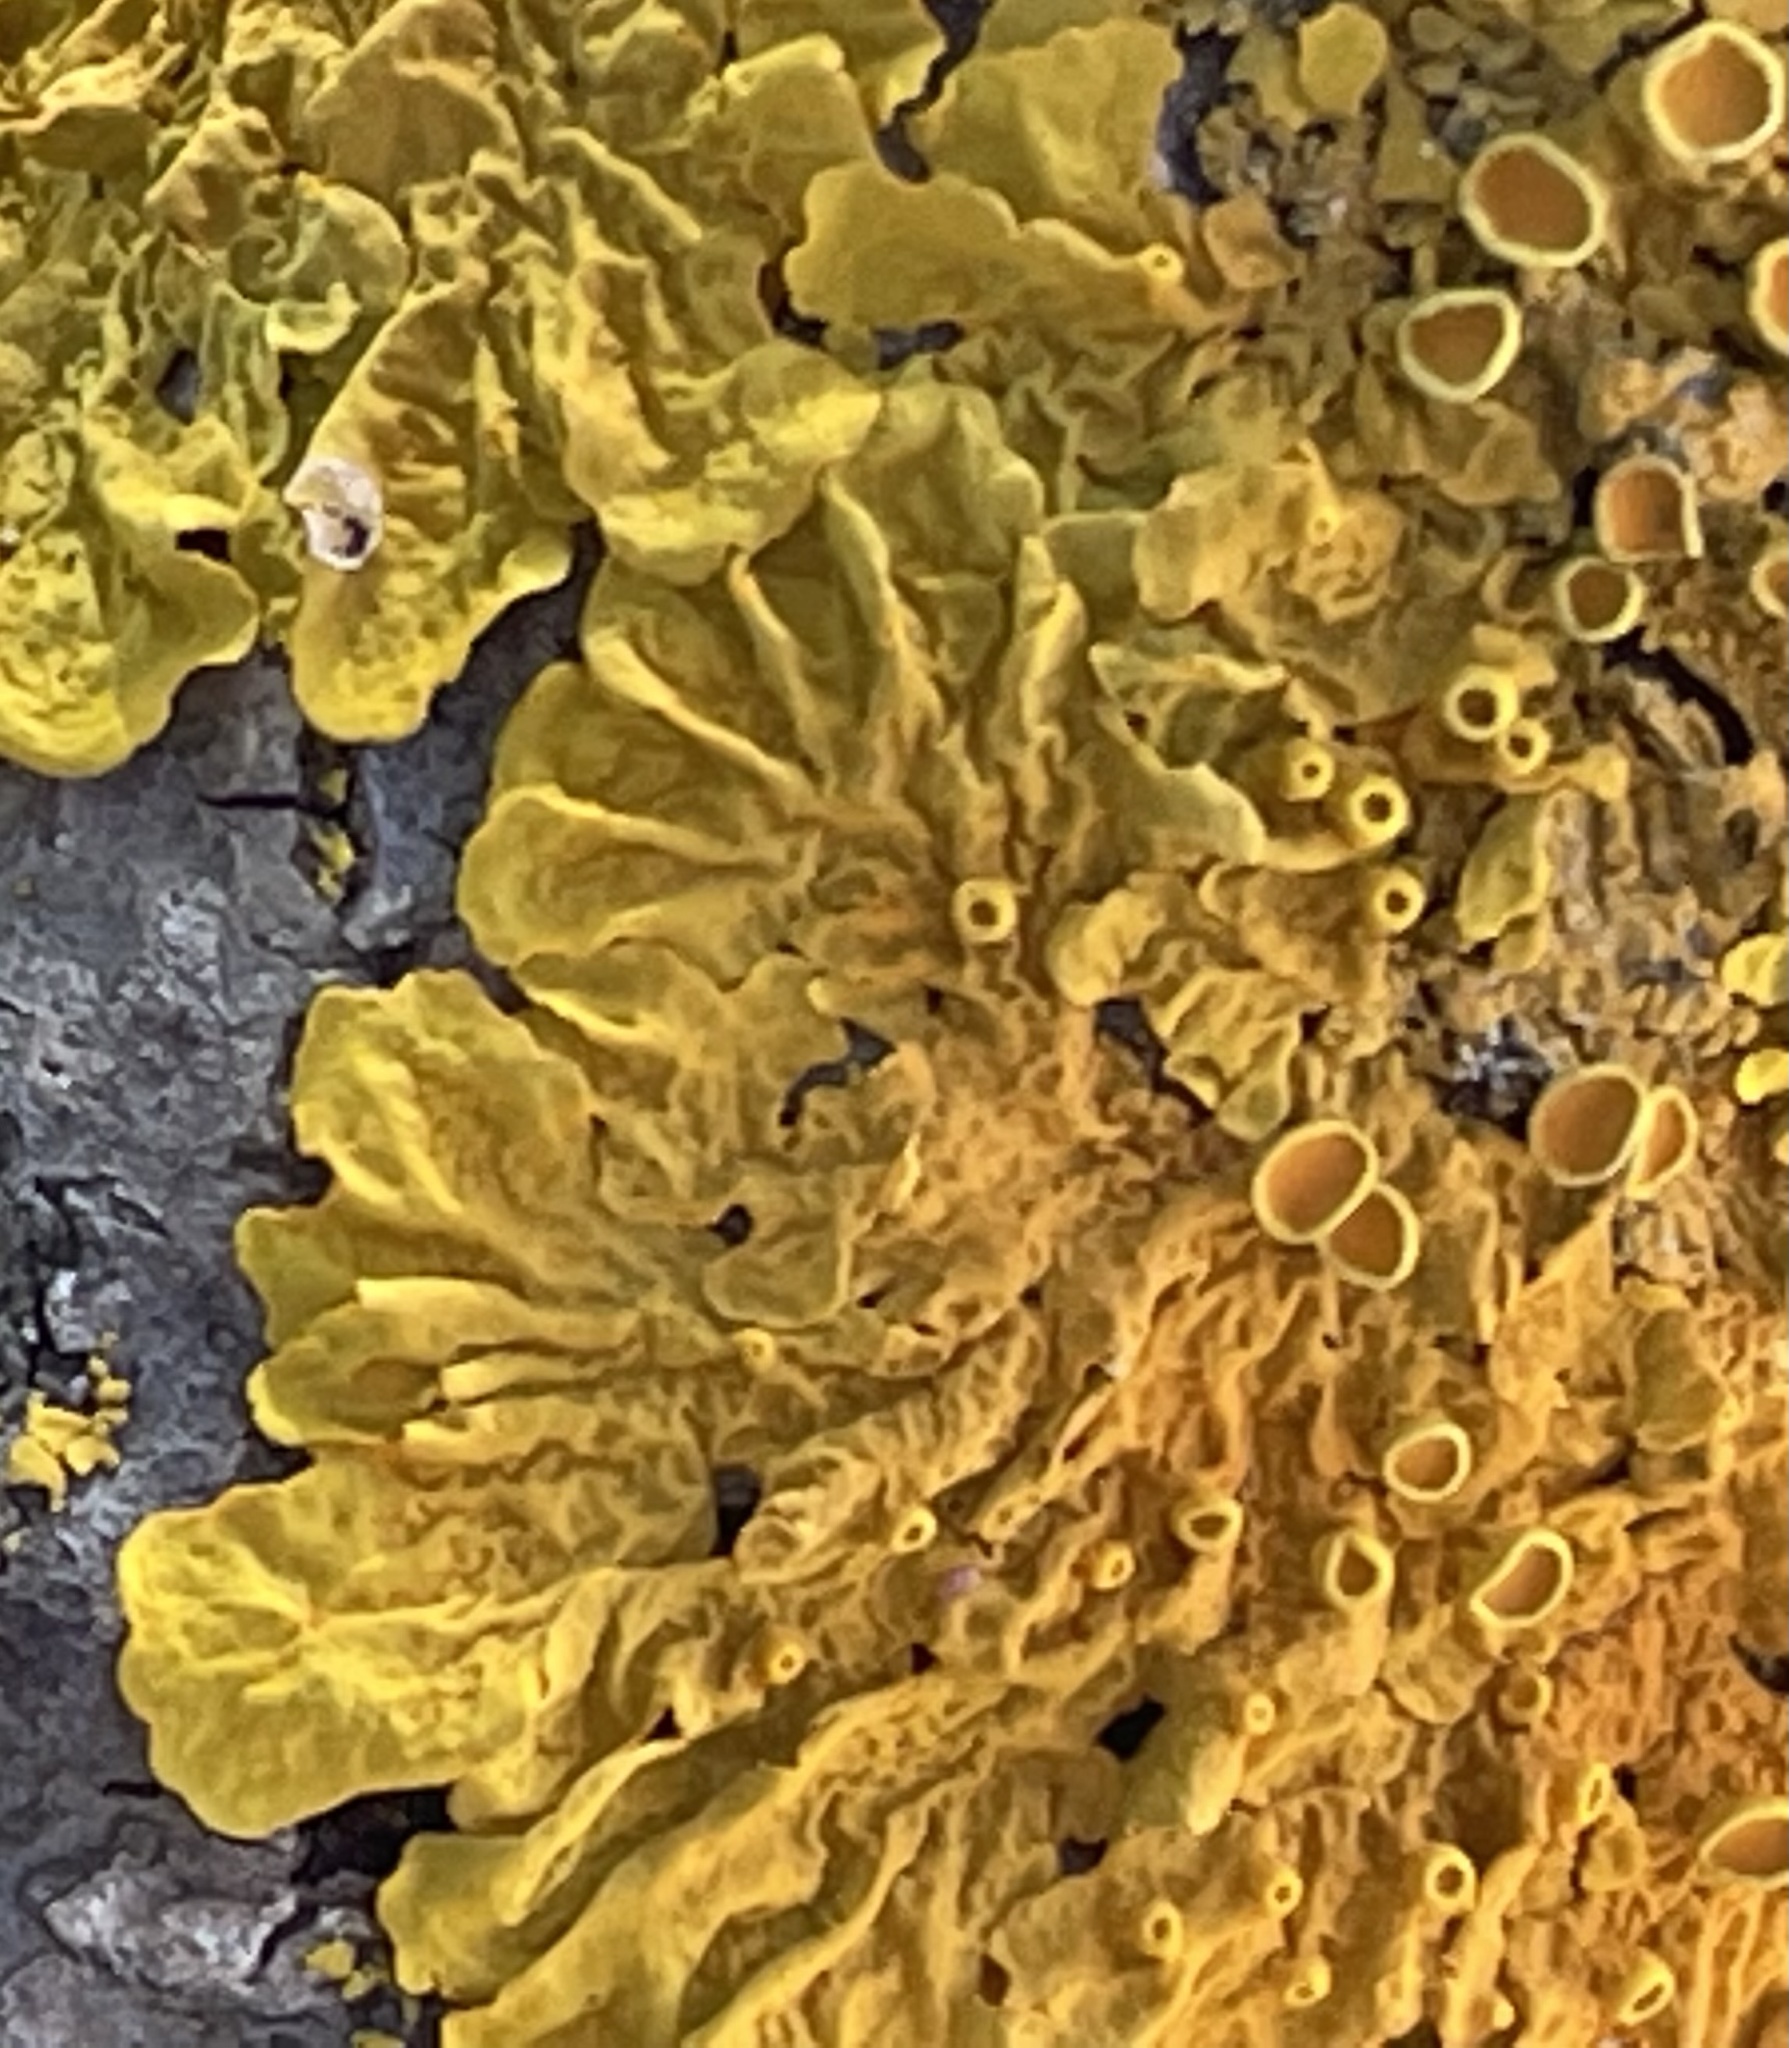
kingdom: Fungi
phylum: Ascomycota
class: Lecanoromycetes
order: Teloschistales
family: Teloschistaceae
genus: Xanthoria
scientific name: Xanthoria parietina
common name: Common orange lichen
